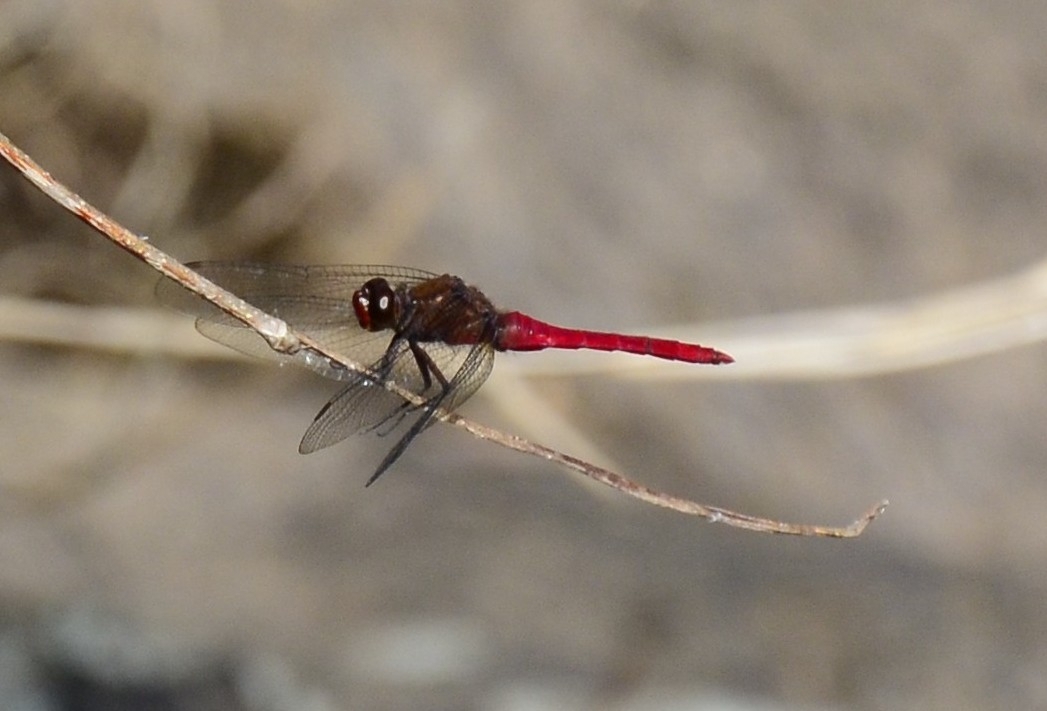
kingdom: Animalia
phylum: Arthropoda
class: Insecta
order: Odonata
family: Libellulidae
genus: Orthetrum
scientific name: Orthetrum chrysis
